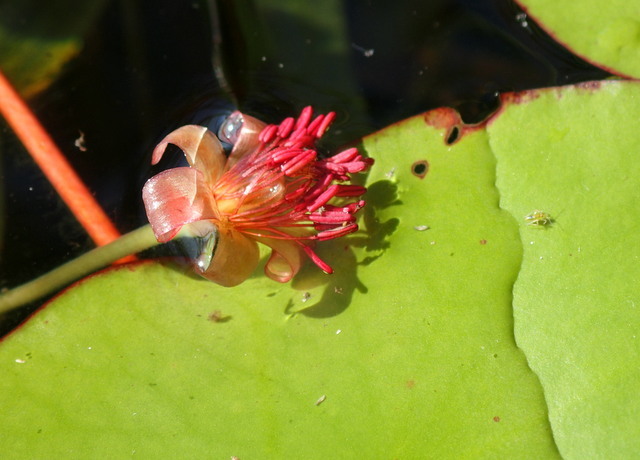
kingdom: Plantae
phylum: Tracheophyta
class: Magnoliopsida
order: Nymphaeales
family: Cabombaceae
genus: Brasenia
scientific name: Brasenia schreberi
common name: Water-shield
